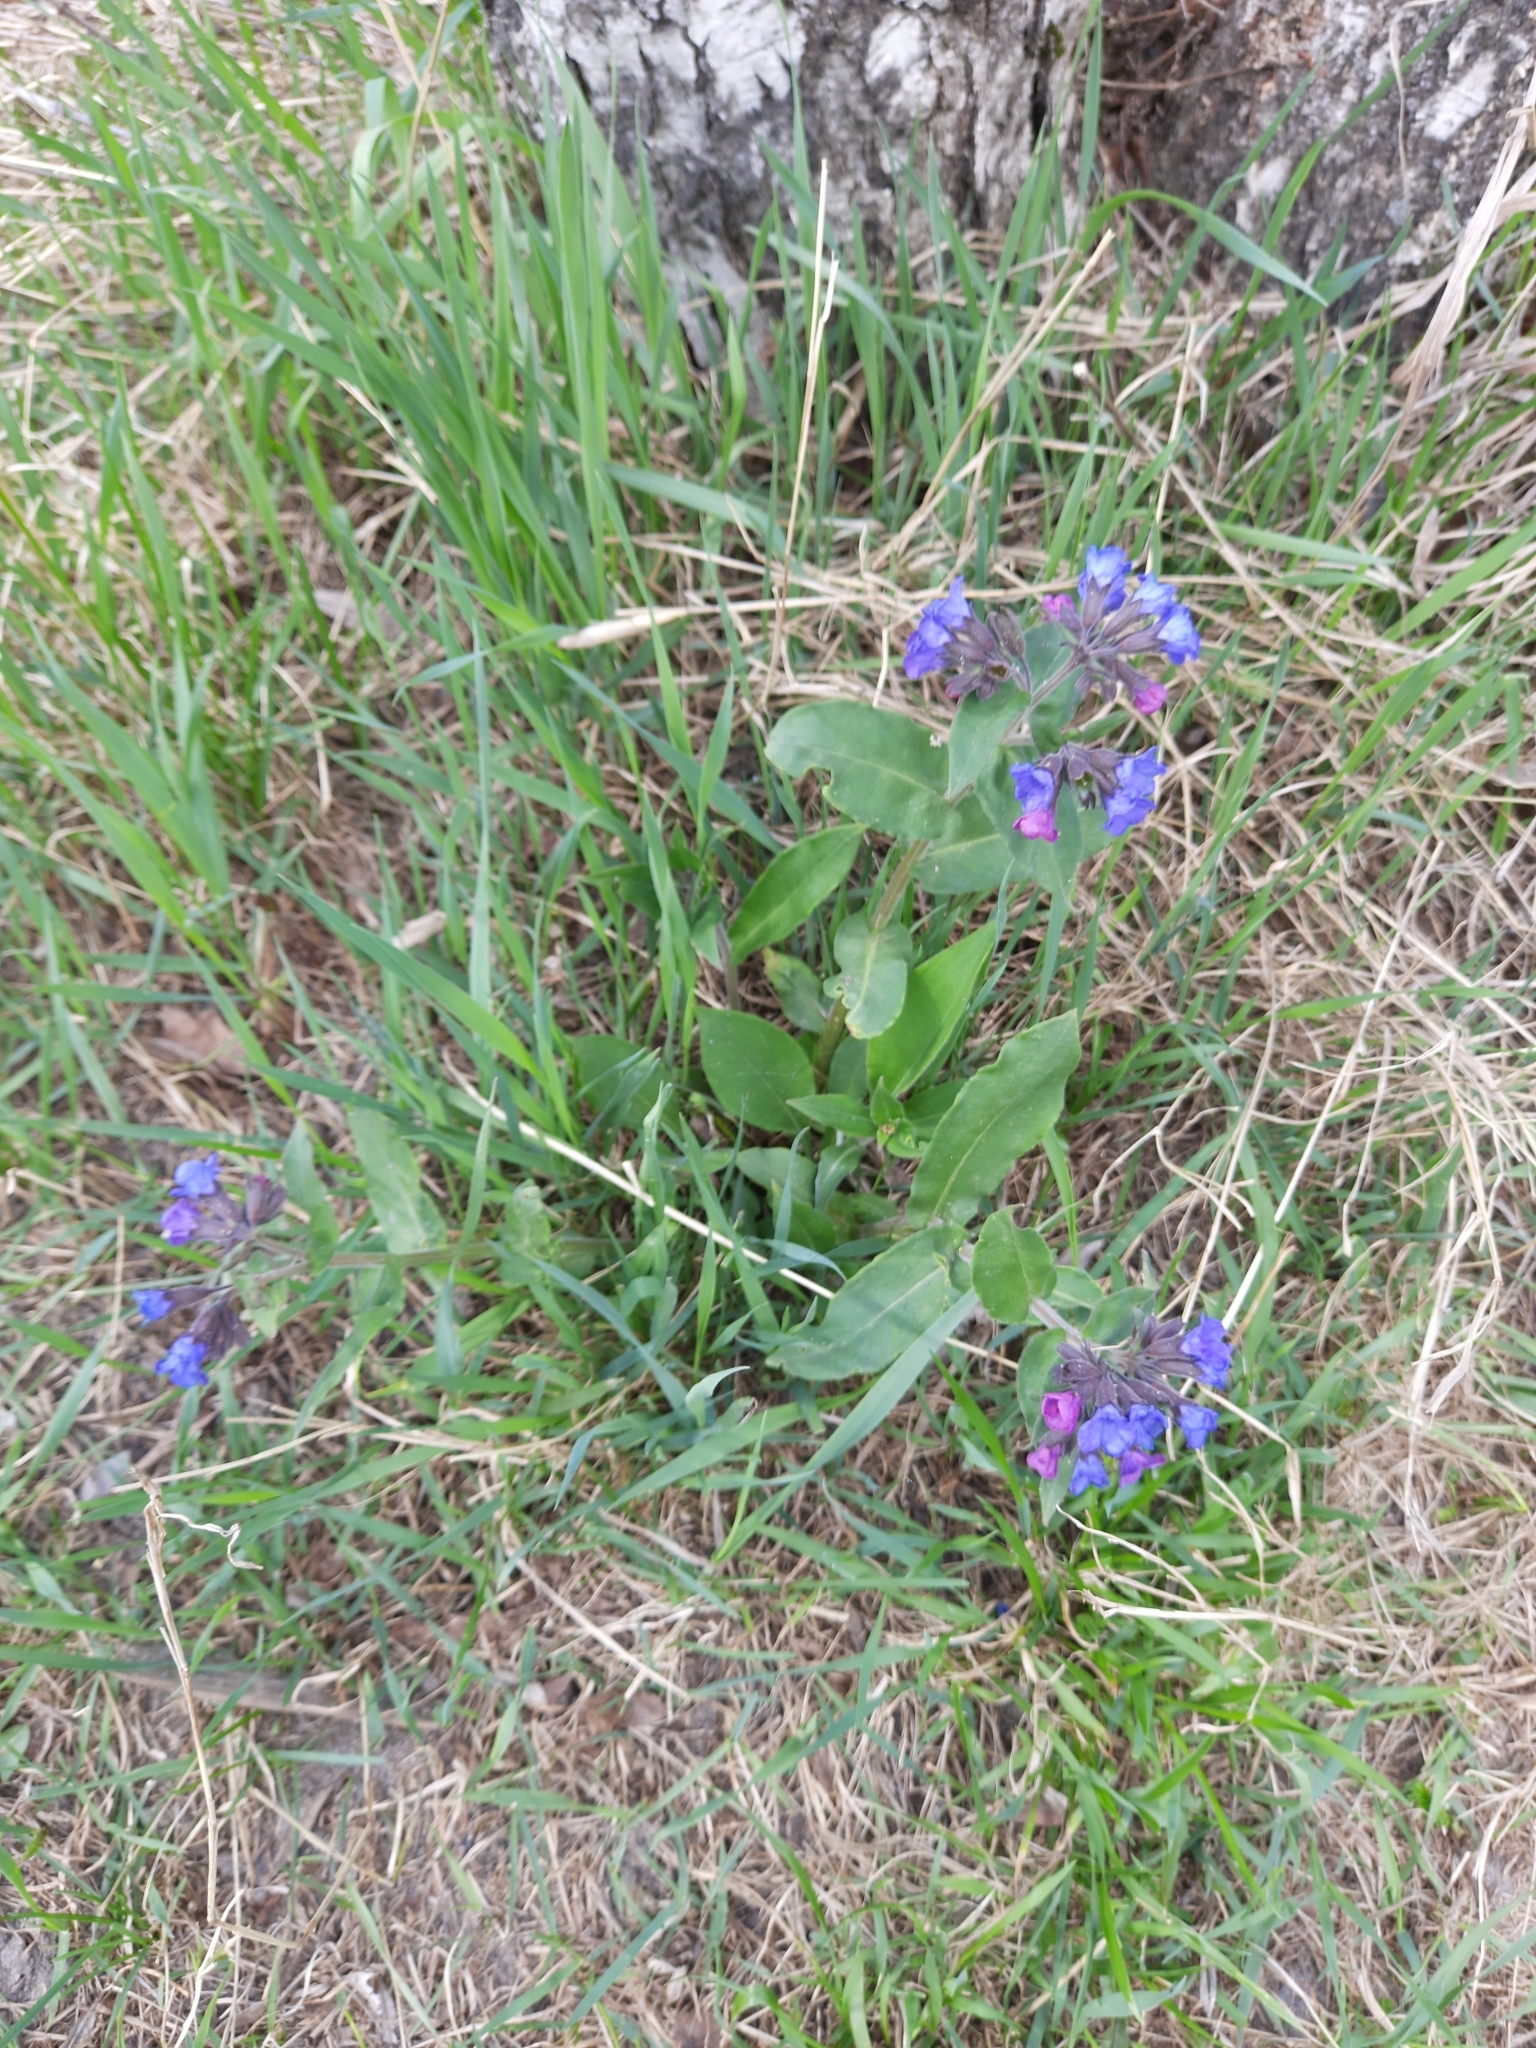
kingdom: Plantae
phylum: Tracheophyta
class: Magnoliopsida
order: Boraginales
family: Boraginaceae
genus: Pulmonaria
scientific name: Pulmonaria mollis
